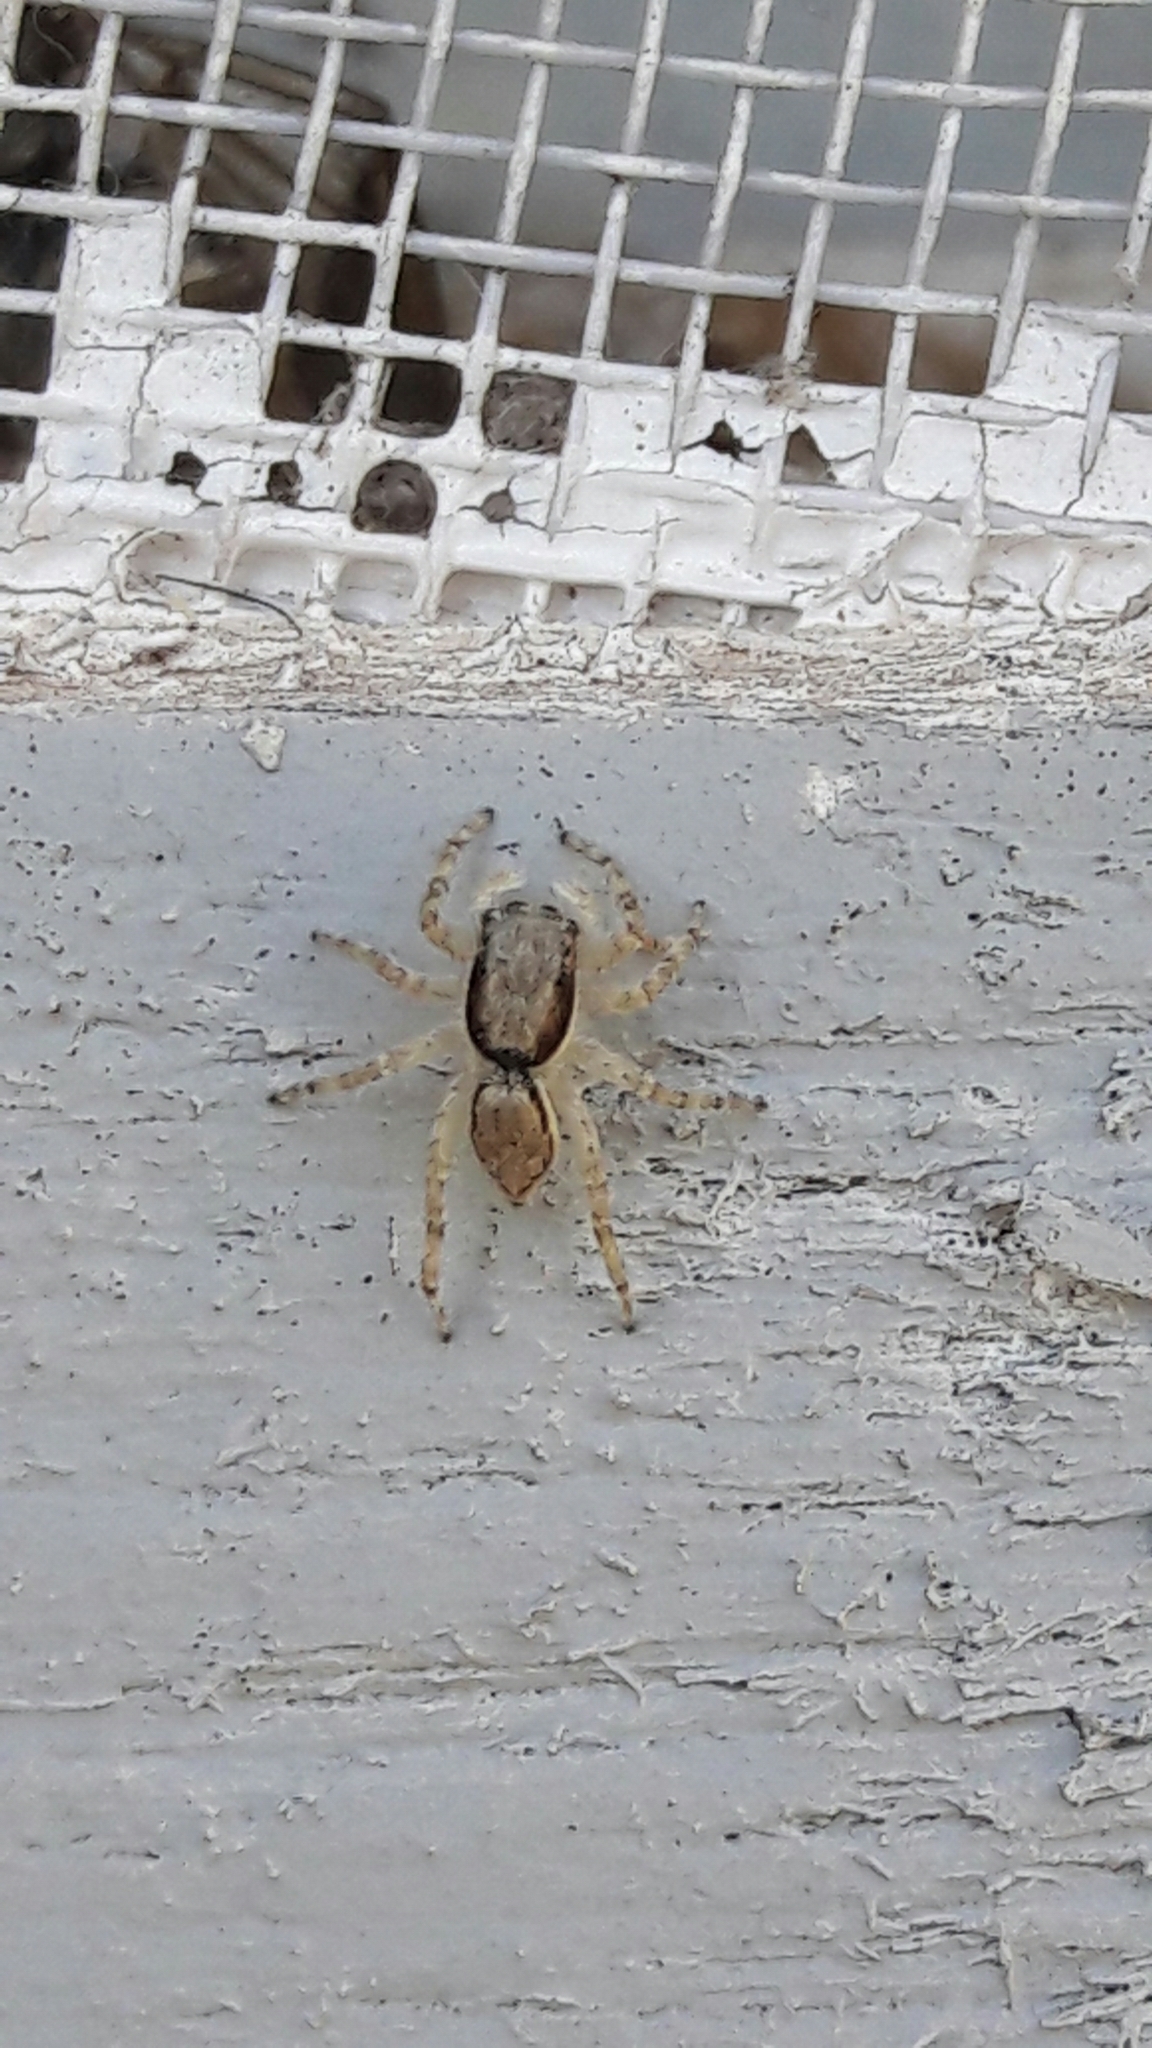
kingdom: Animalia
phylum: Arthropoda
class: Arachnida
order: Araneae
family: Salticidae
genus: Menemerus
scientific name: Menemerus bivittatus
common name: Gray wall jumper
